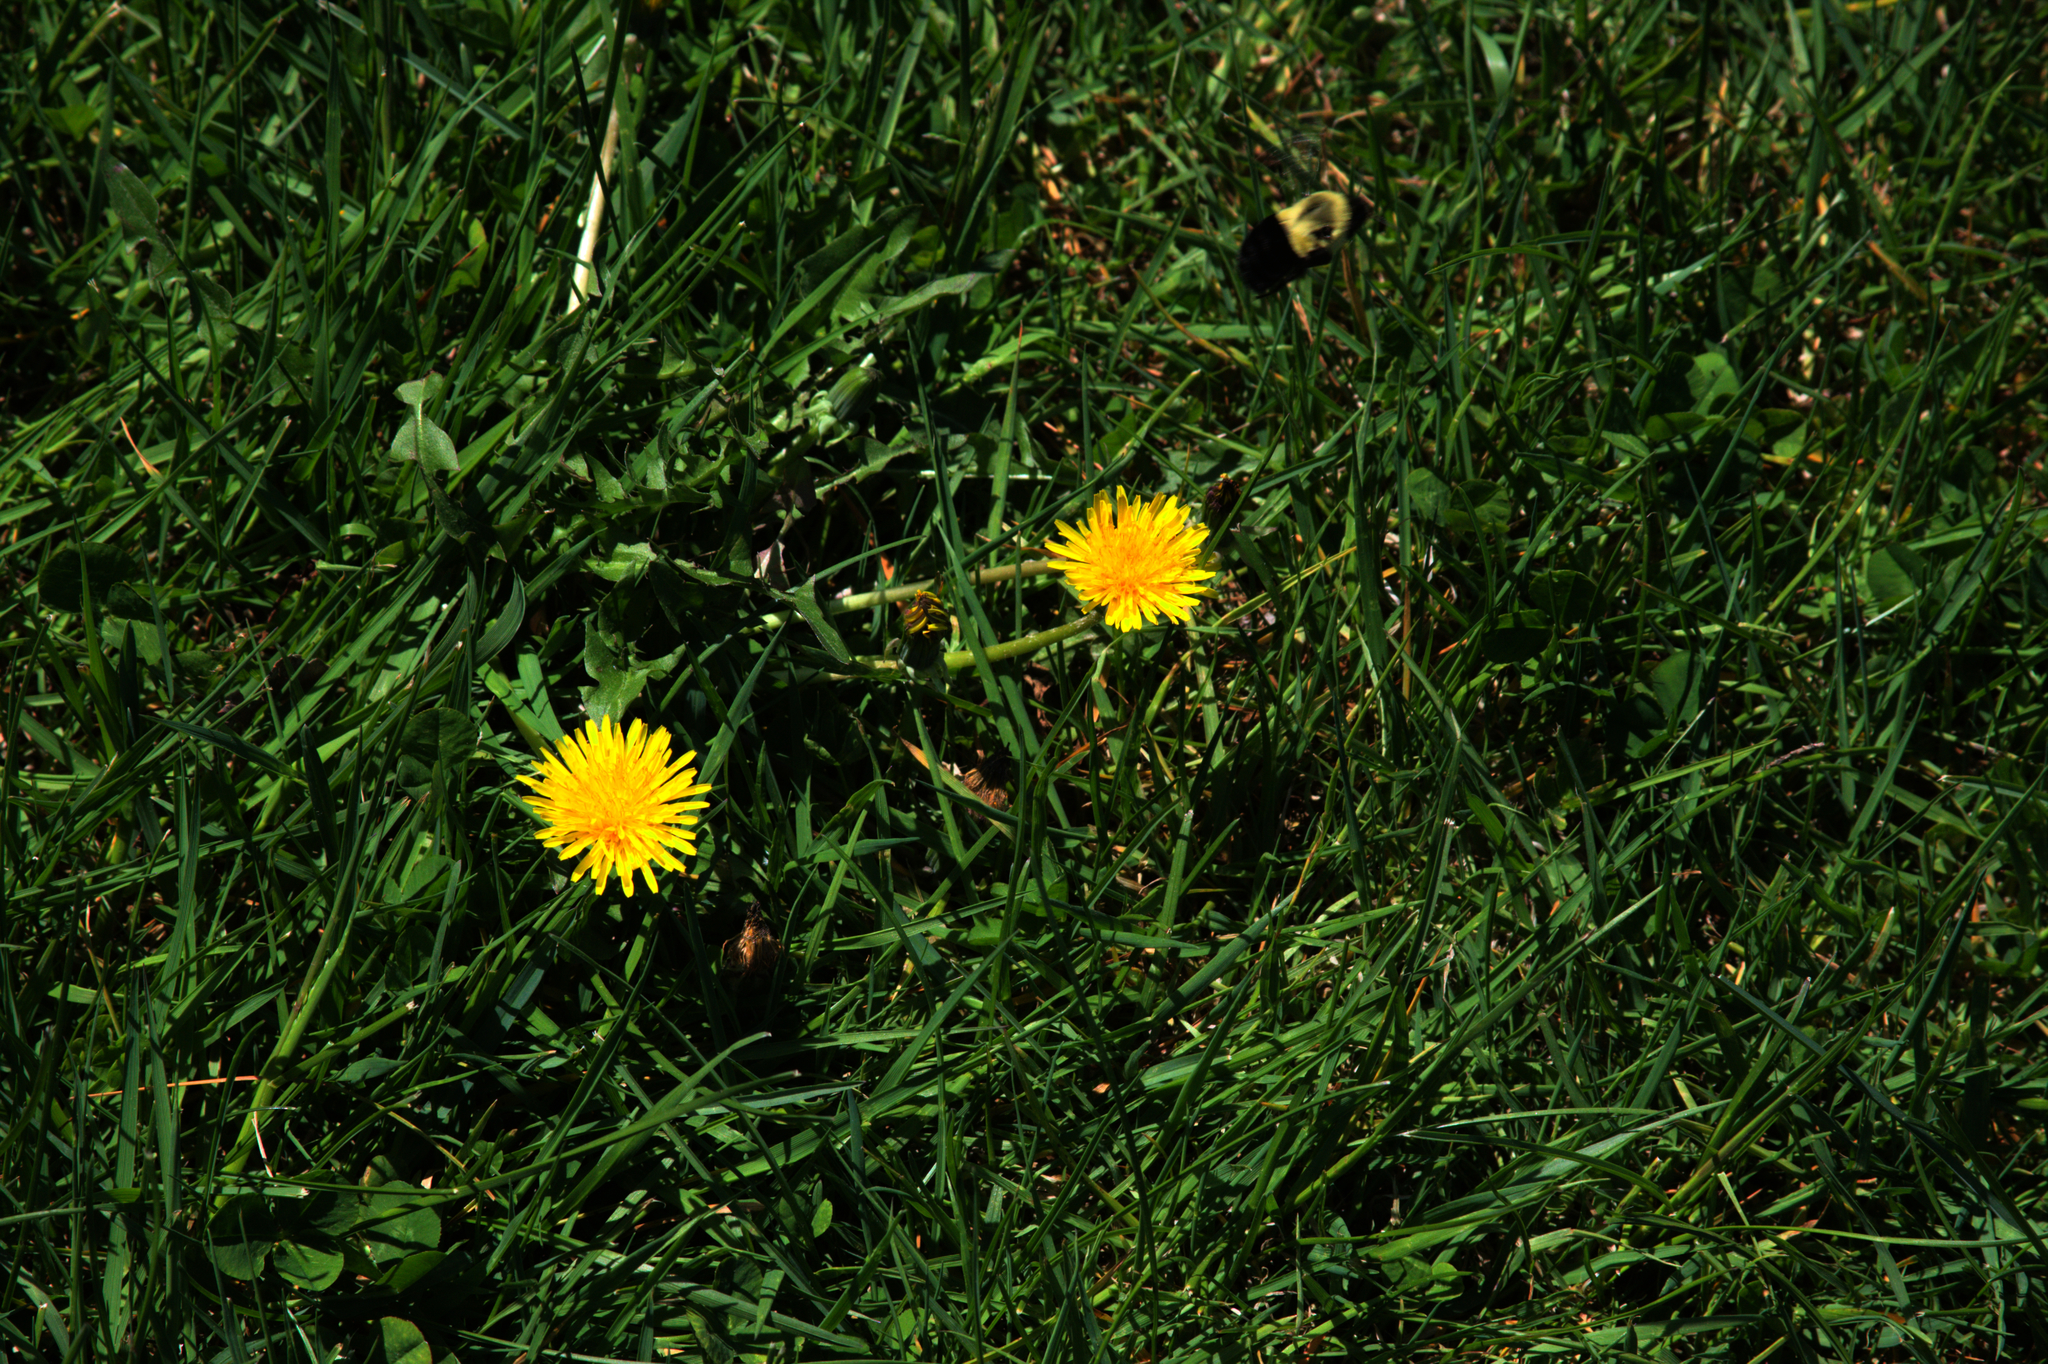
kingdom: Animalia
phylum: Arthropoda
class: Insecta
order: Hymenoptera
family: Apidae
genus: Bombus
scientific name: Bombus impatiens
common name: Common eastern bumble bee
